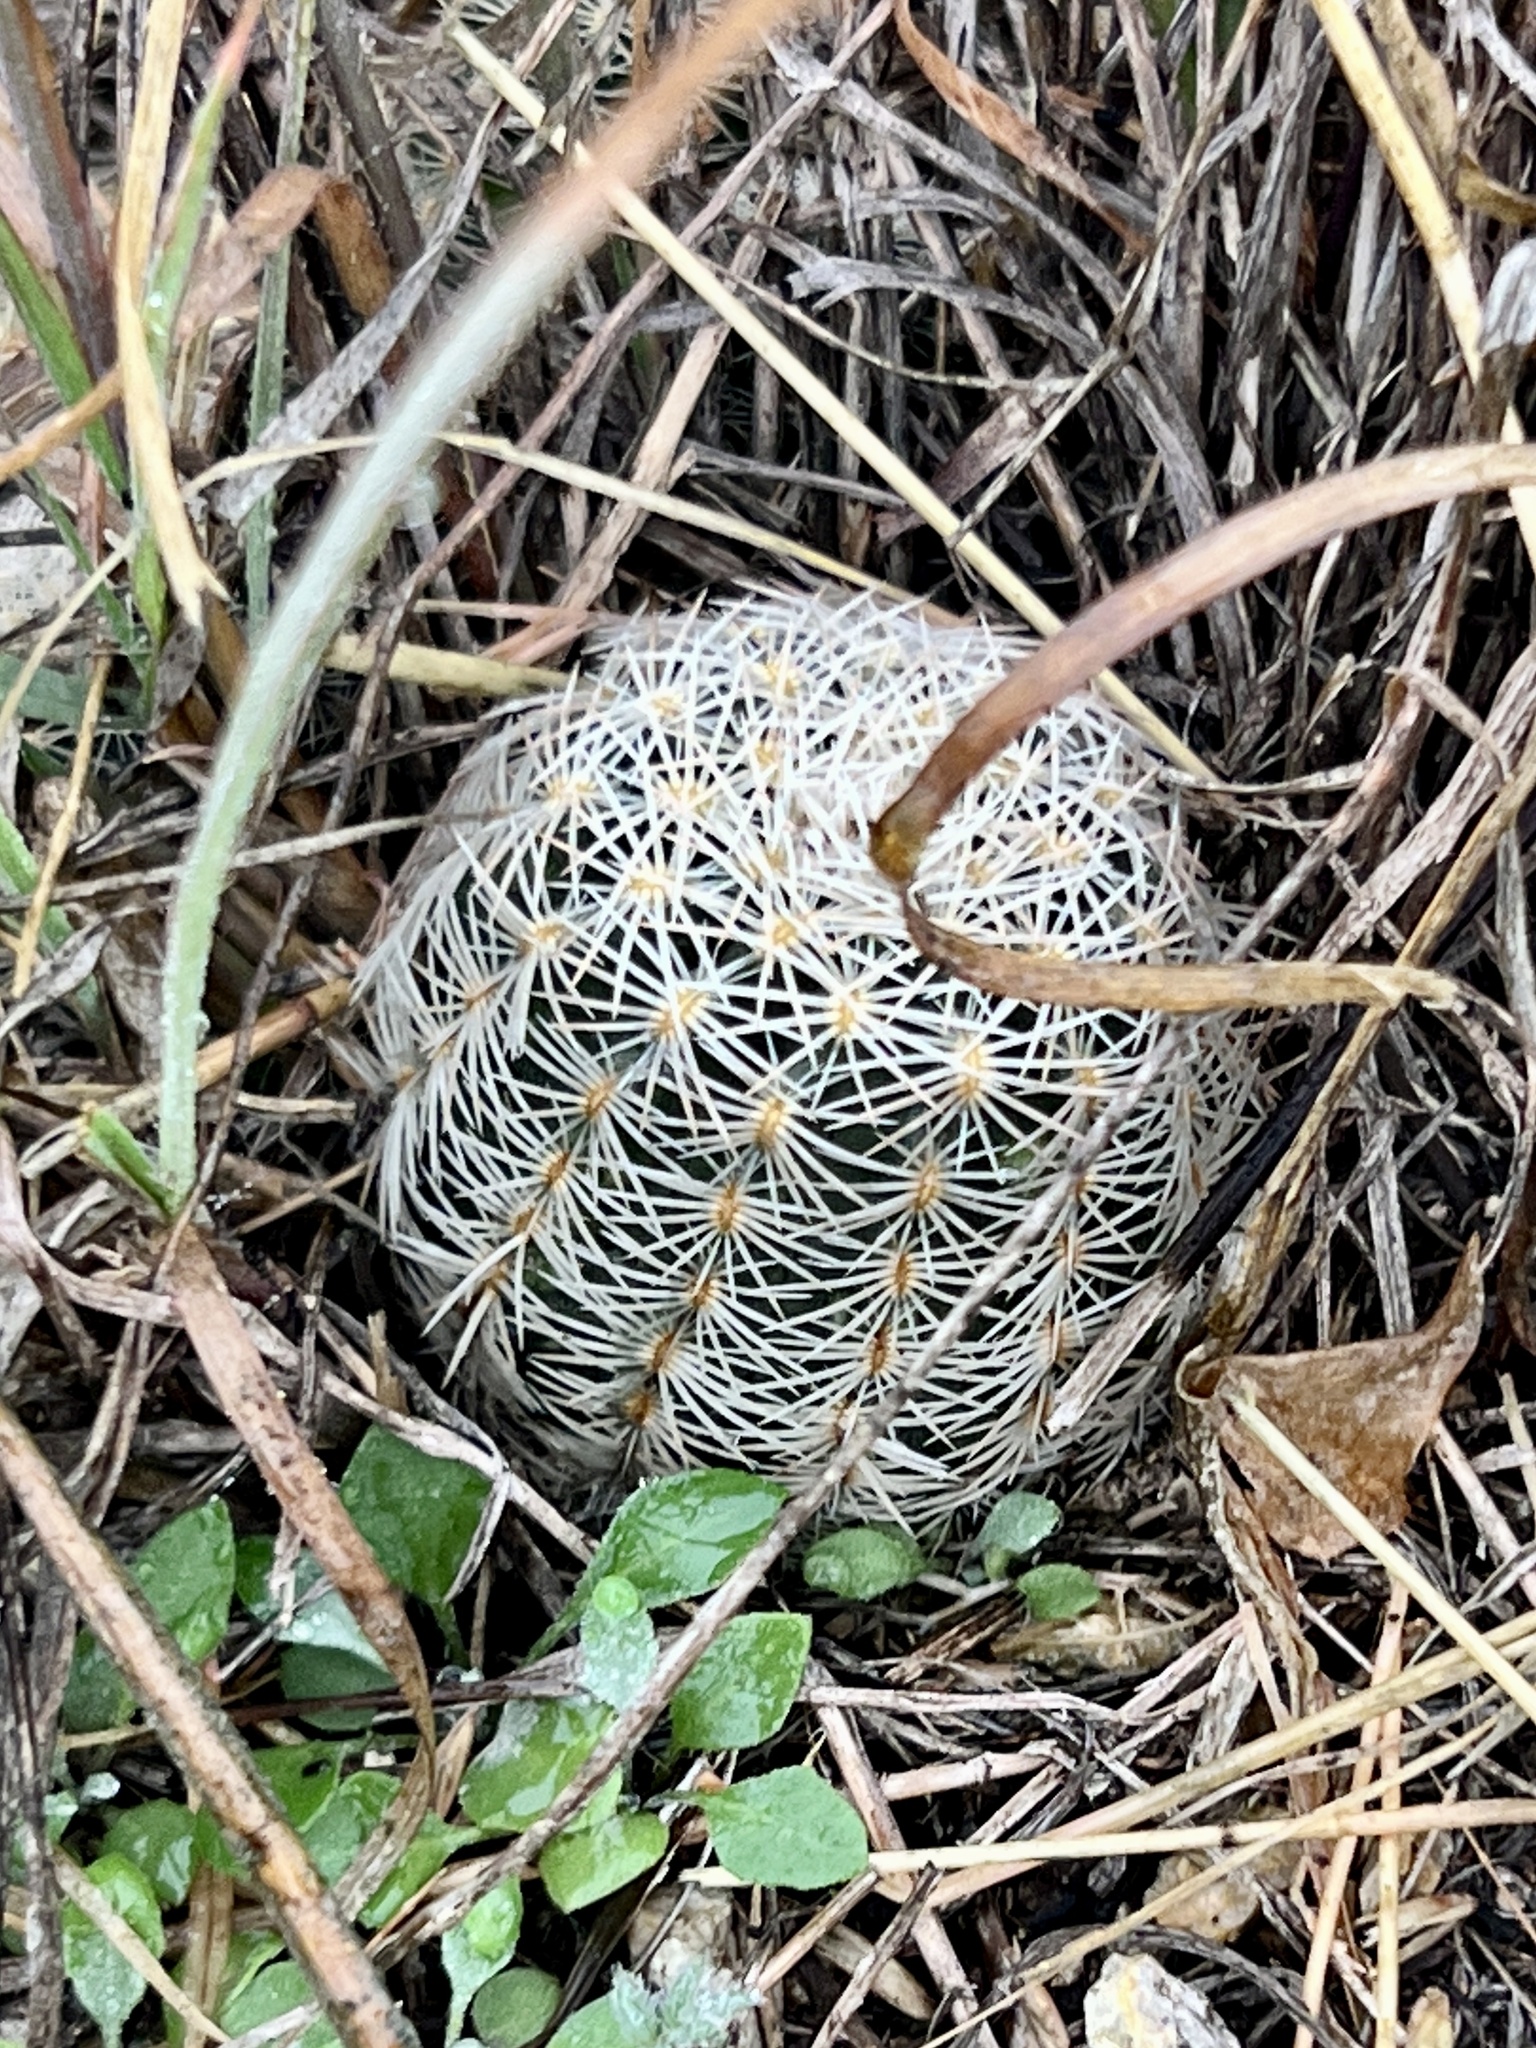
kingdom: Plantae
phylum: Tracheophyta
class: Magnoliopsida
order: Caryophyllales
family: Cactaceae
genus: Echinocereus
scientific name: Echinocereus reichenbachii
